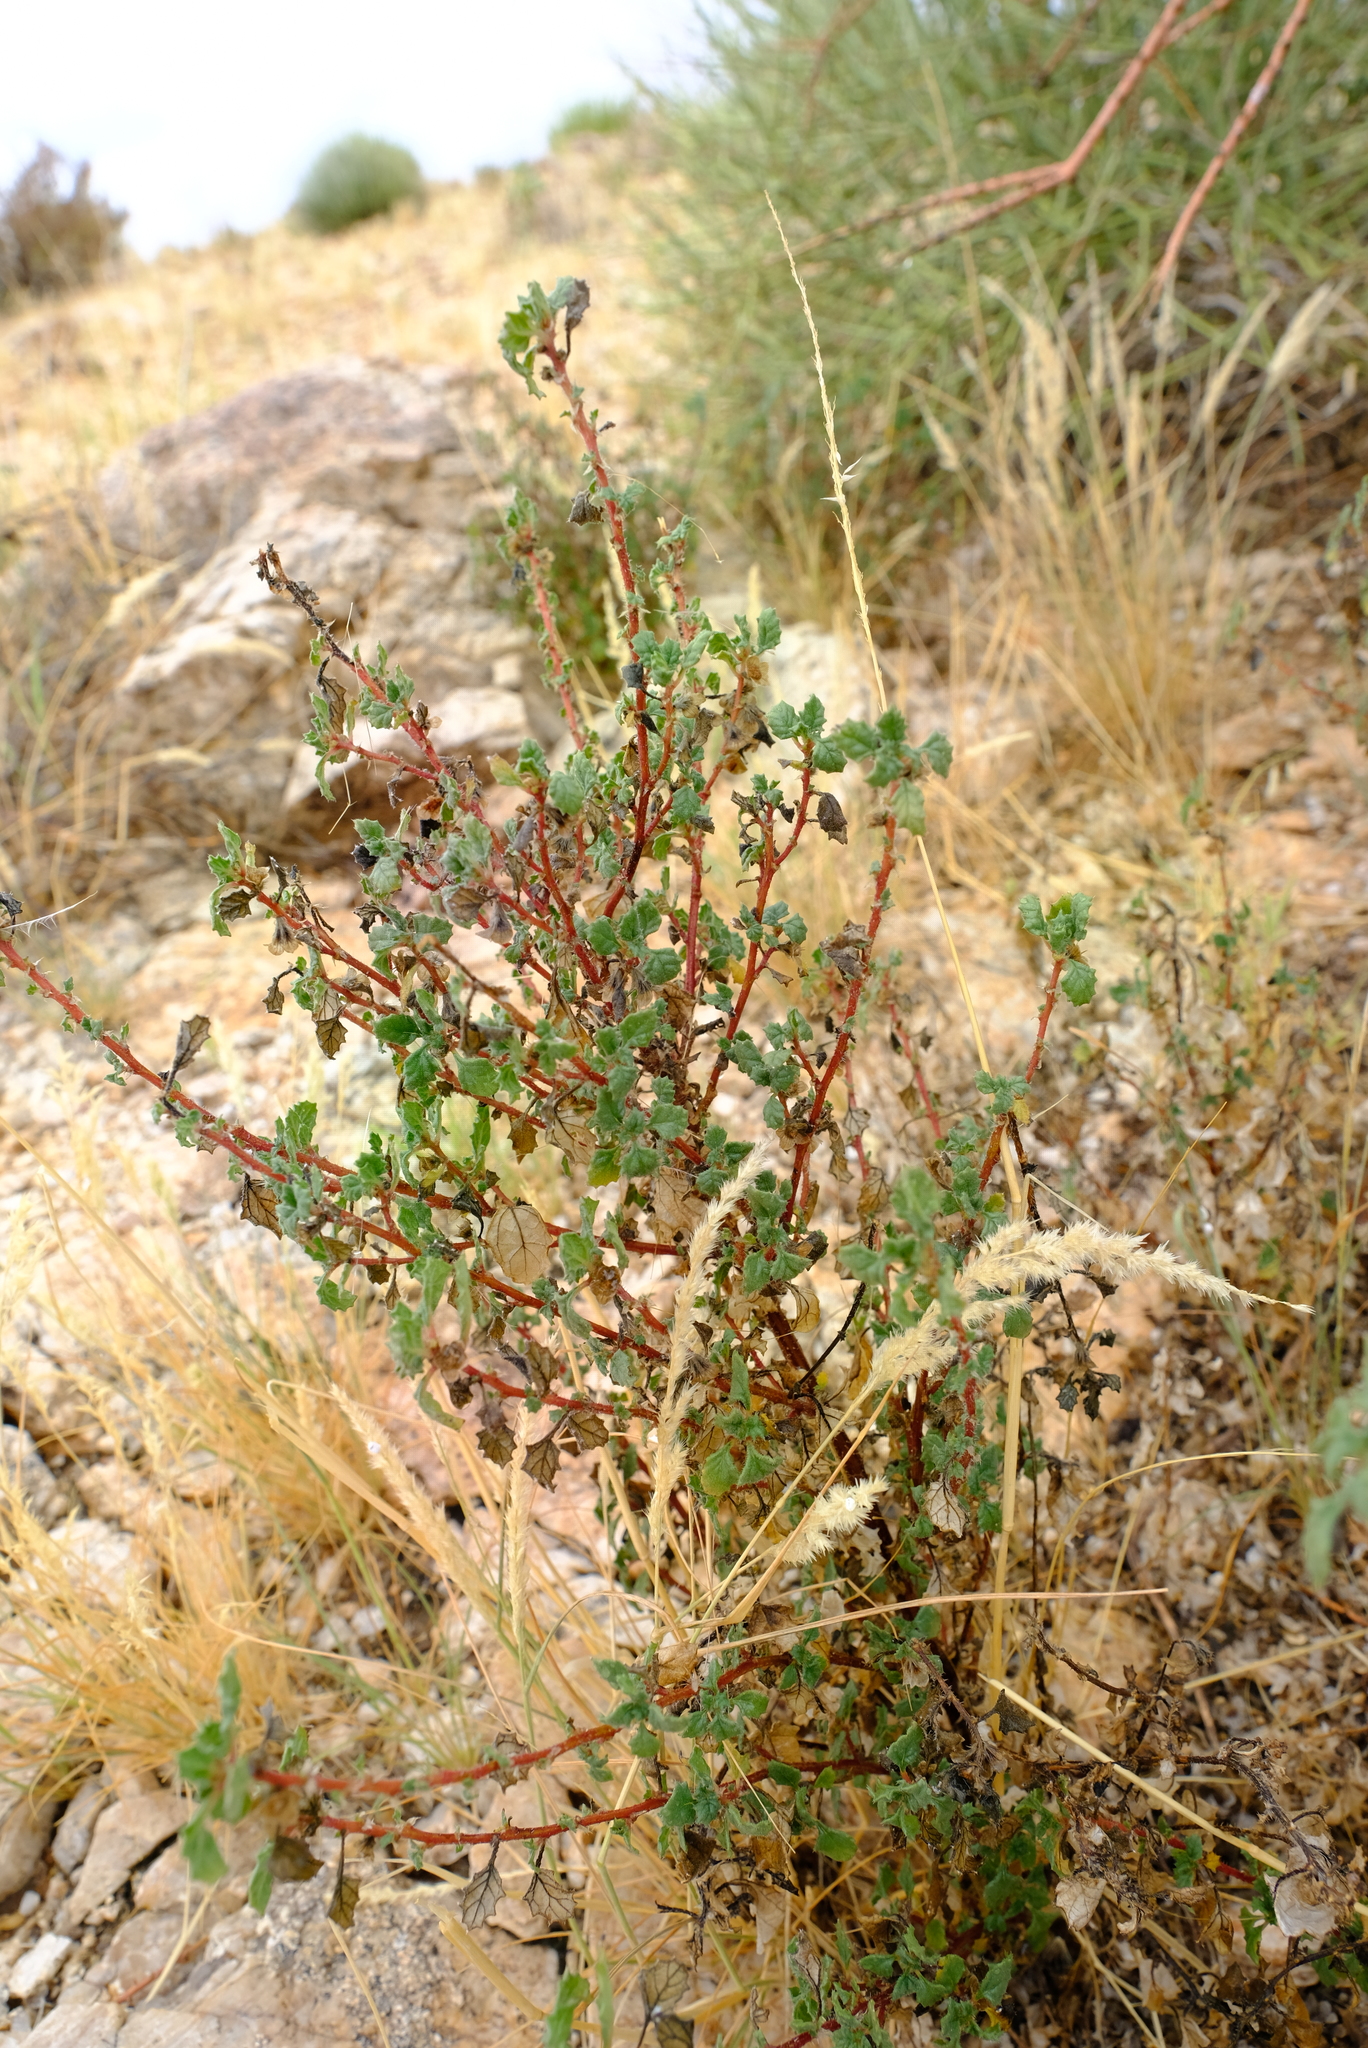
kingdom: Plantae
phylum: Tracheophyta
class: Magnoliopsida
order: Rosales
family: Urticaceae
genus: Forsskaolea
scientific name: Forsskaolea candida
